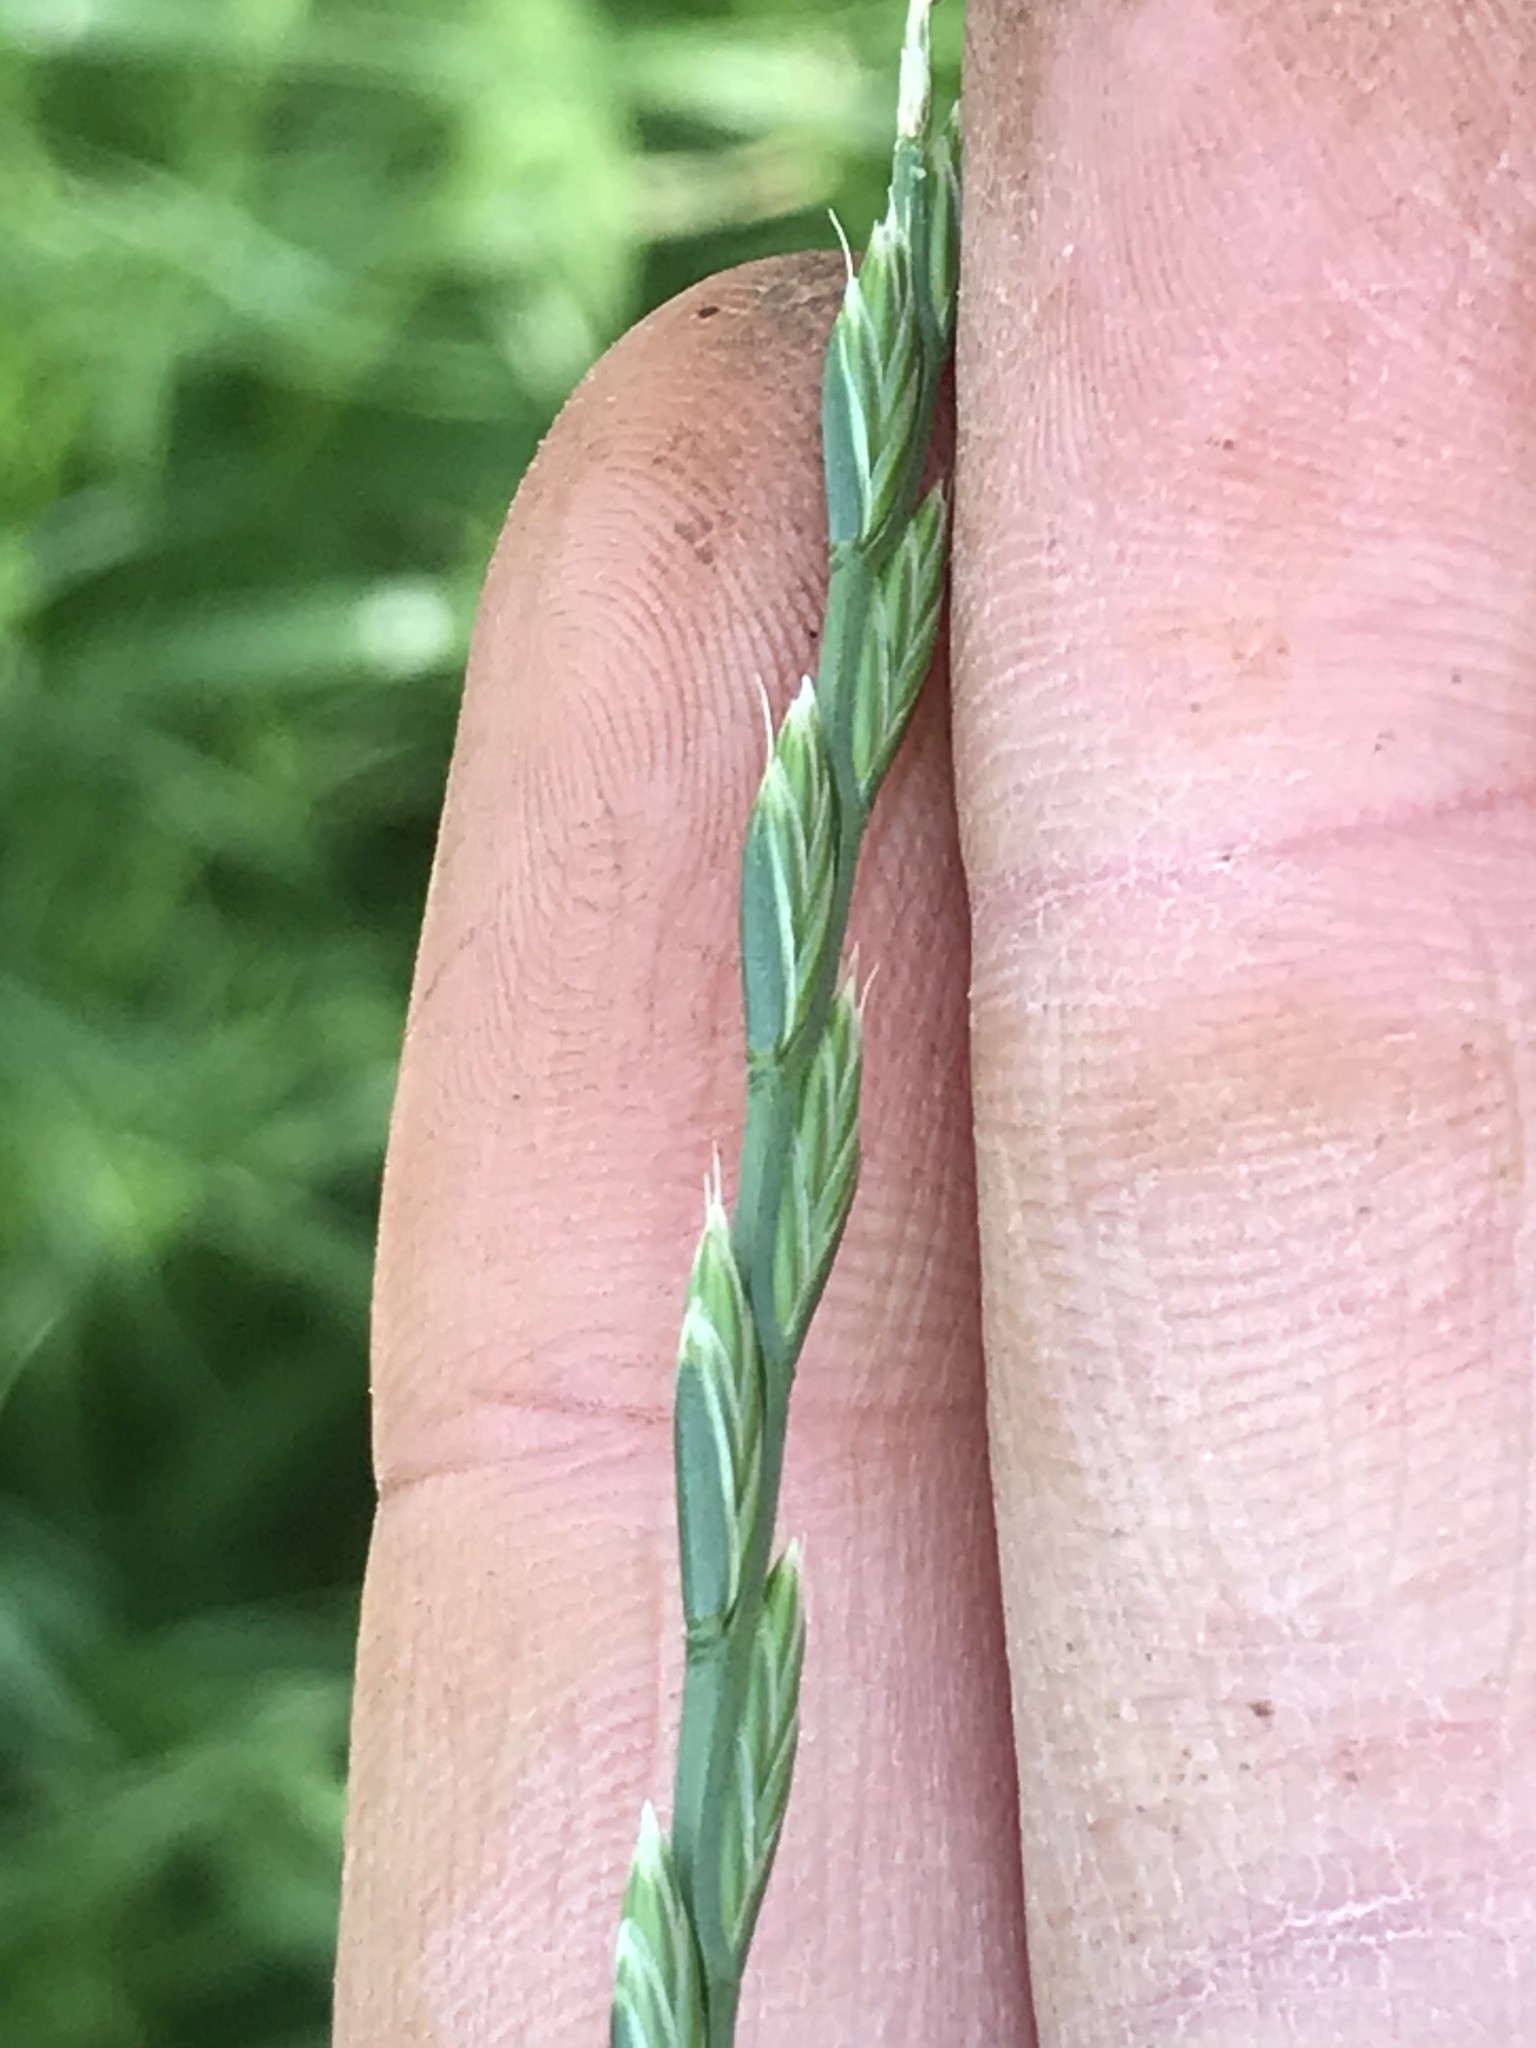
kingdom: Plantae
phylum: Tracheophyta
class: Liliopsida
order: Poales
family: Poaceae
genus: Lolium
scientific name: Lolium perenne
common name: Perennial ryegrass
